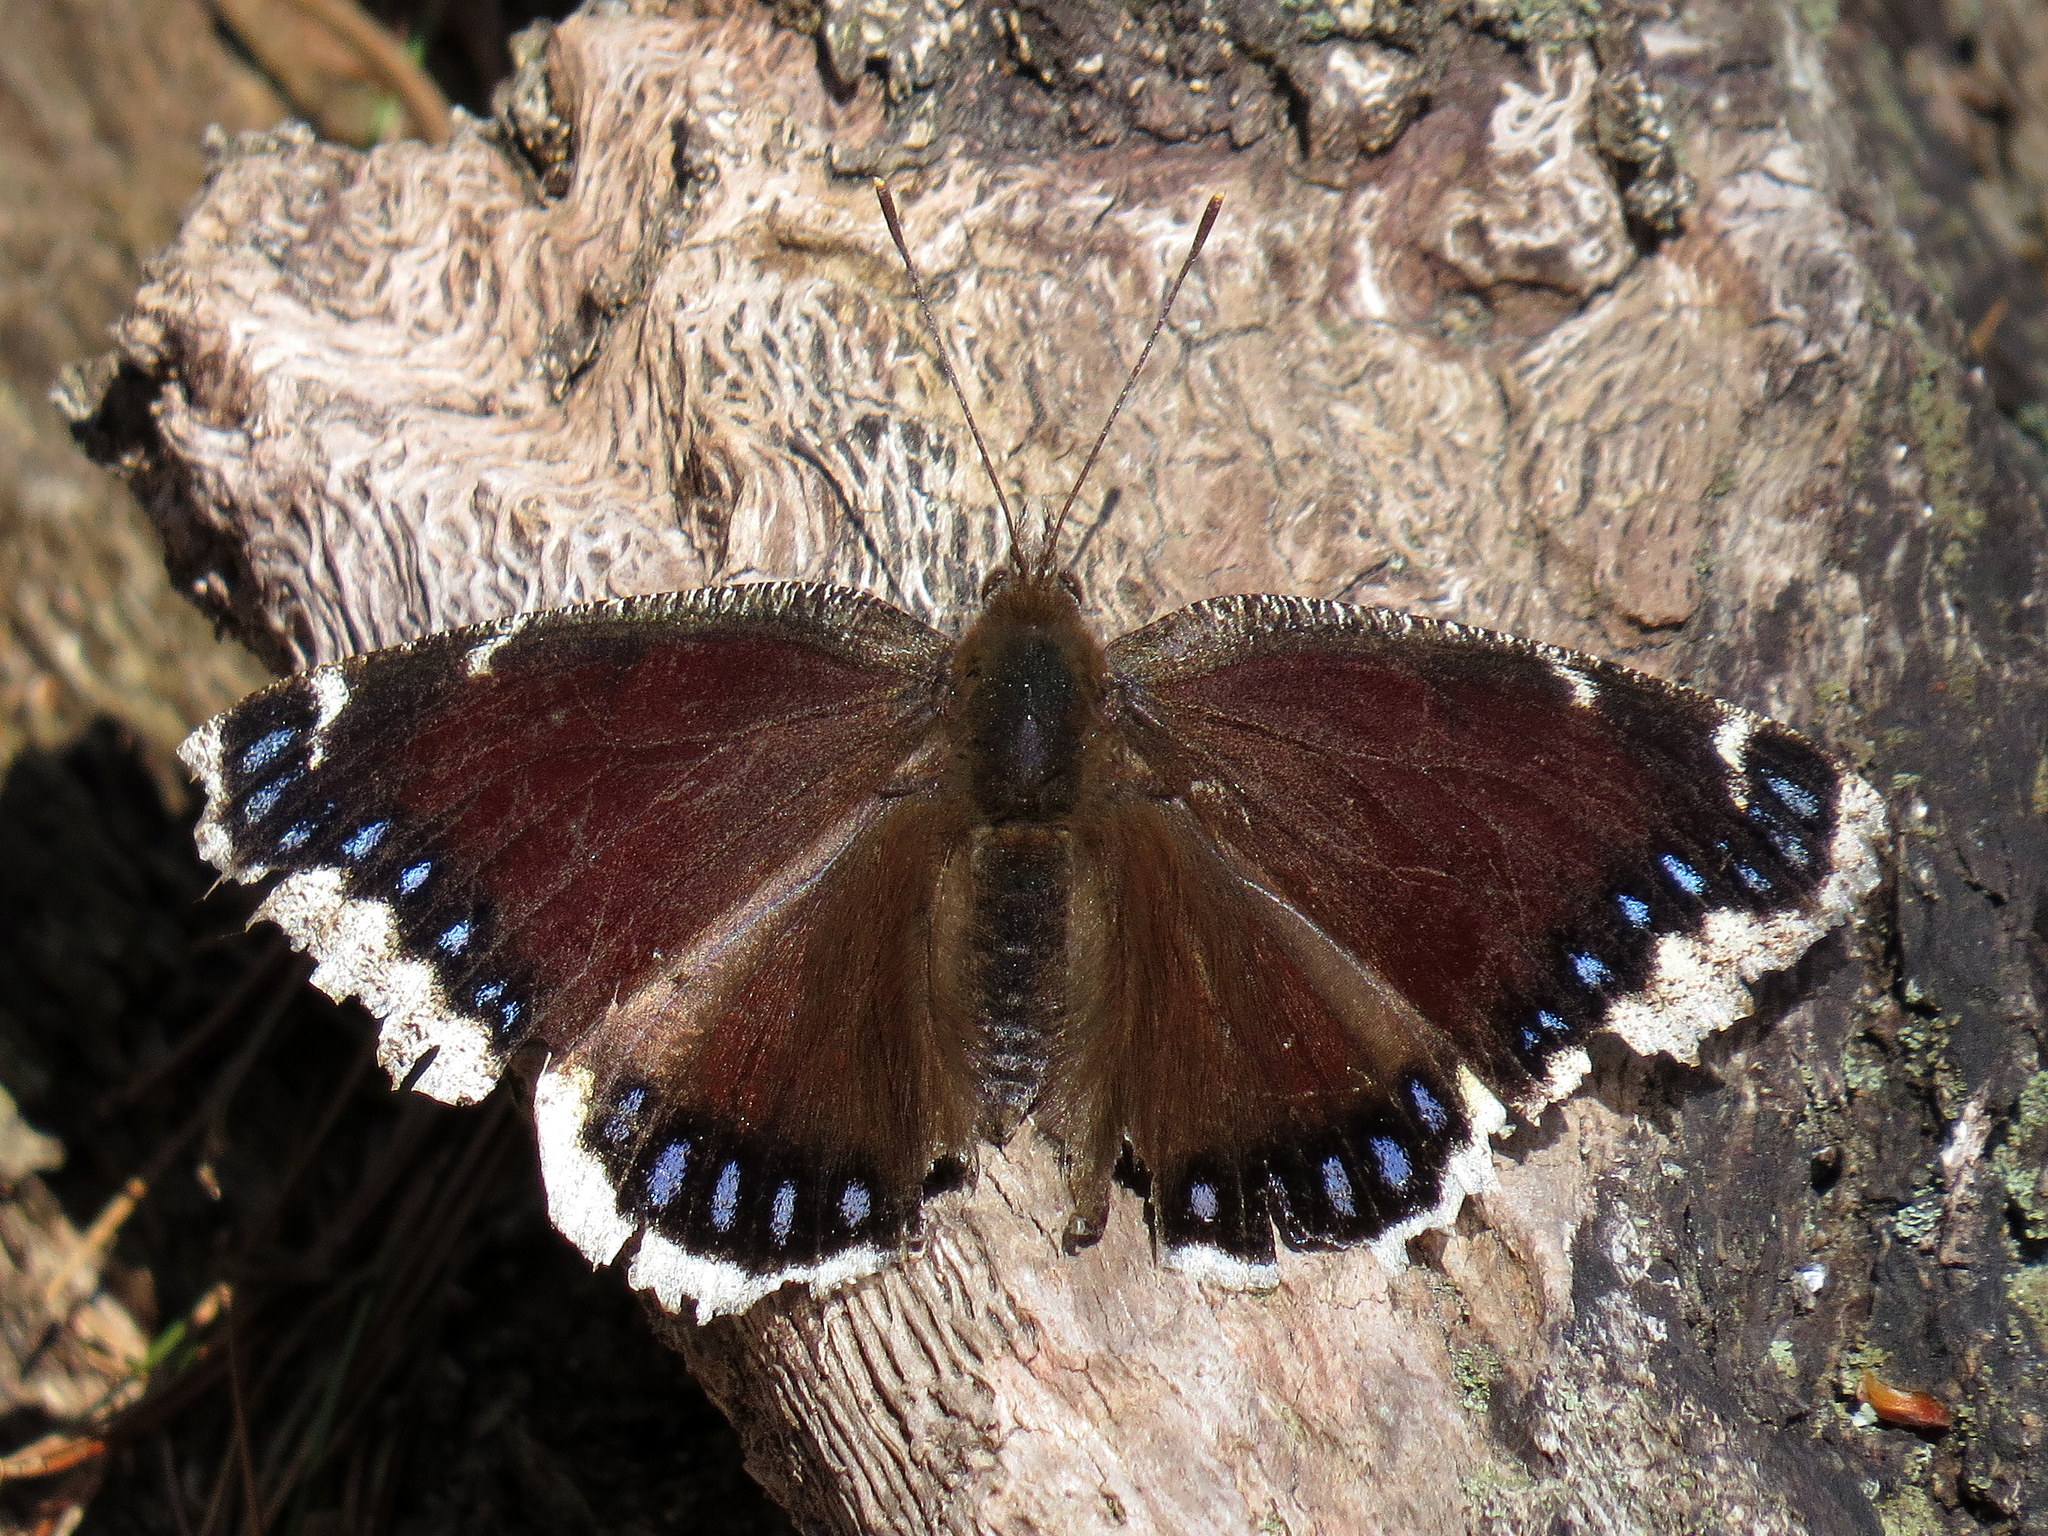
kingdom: Animalia
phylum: Arthropoda
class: Insecta
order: Lepidoptera
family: Nymphalidae
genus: Nymphalis
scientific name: Nymphalis antiopa
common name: Camberwell beauty
